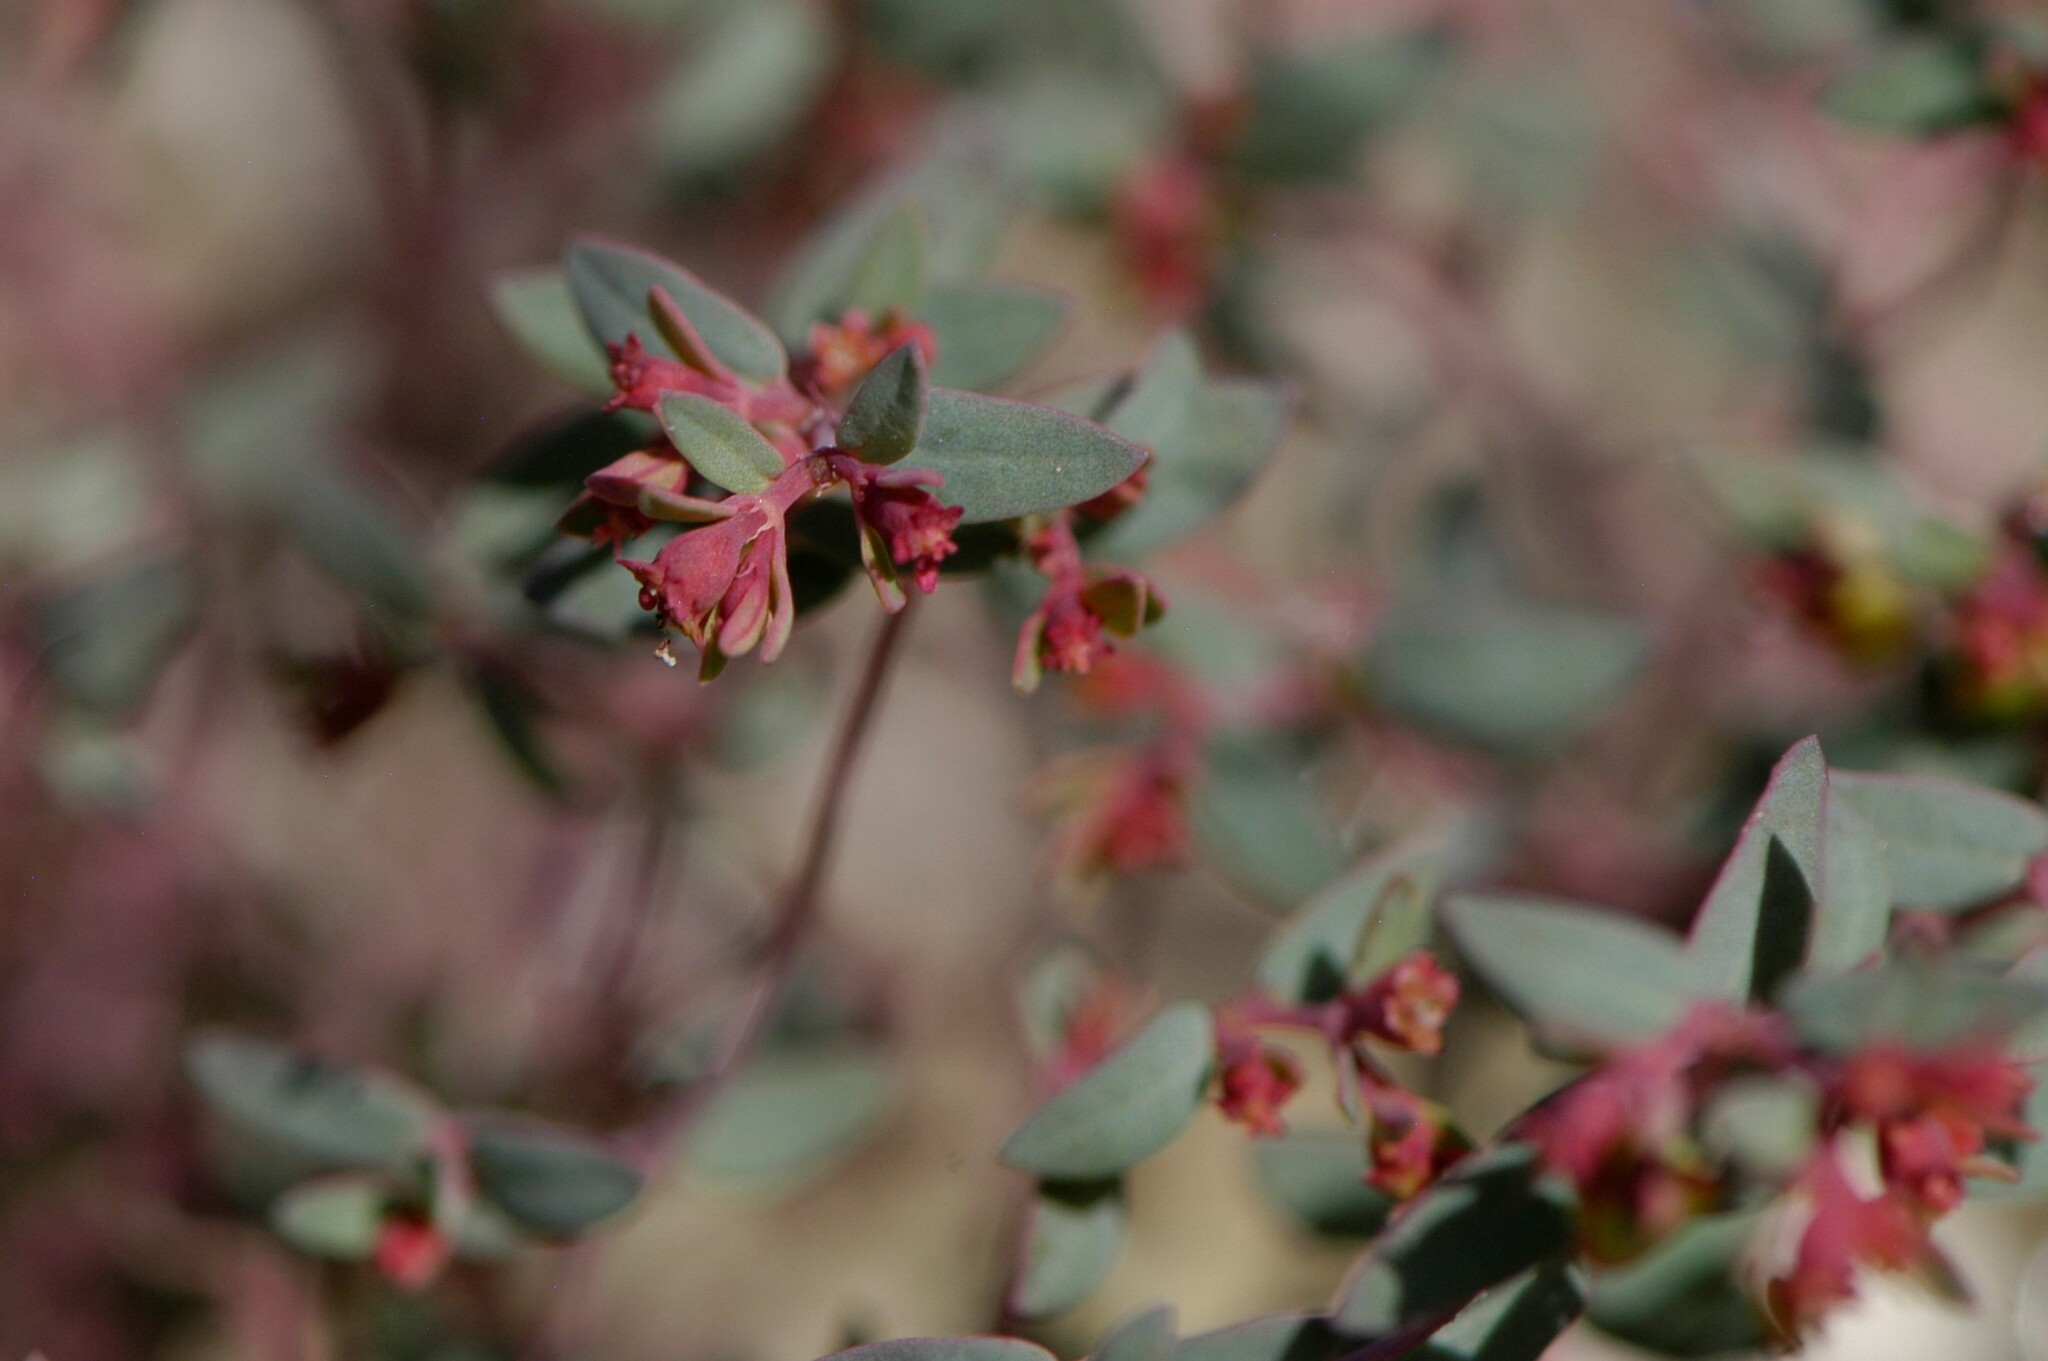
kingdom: Plantae
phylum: Tracheophyta
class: Magnoliopsida
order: Malpighiales
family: Euphorbiaceae
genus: Euphorbia
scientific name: Euphorbia chaetocalyx
